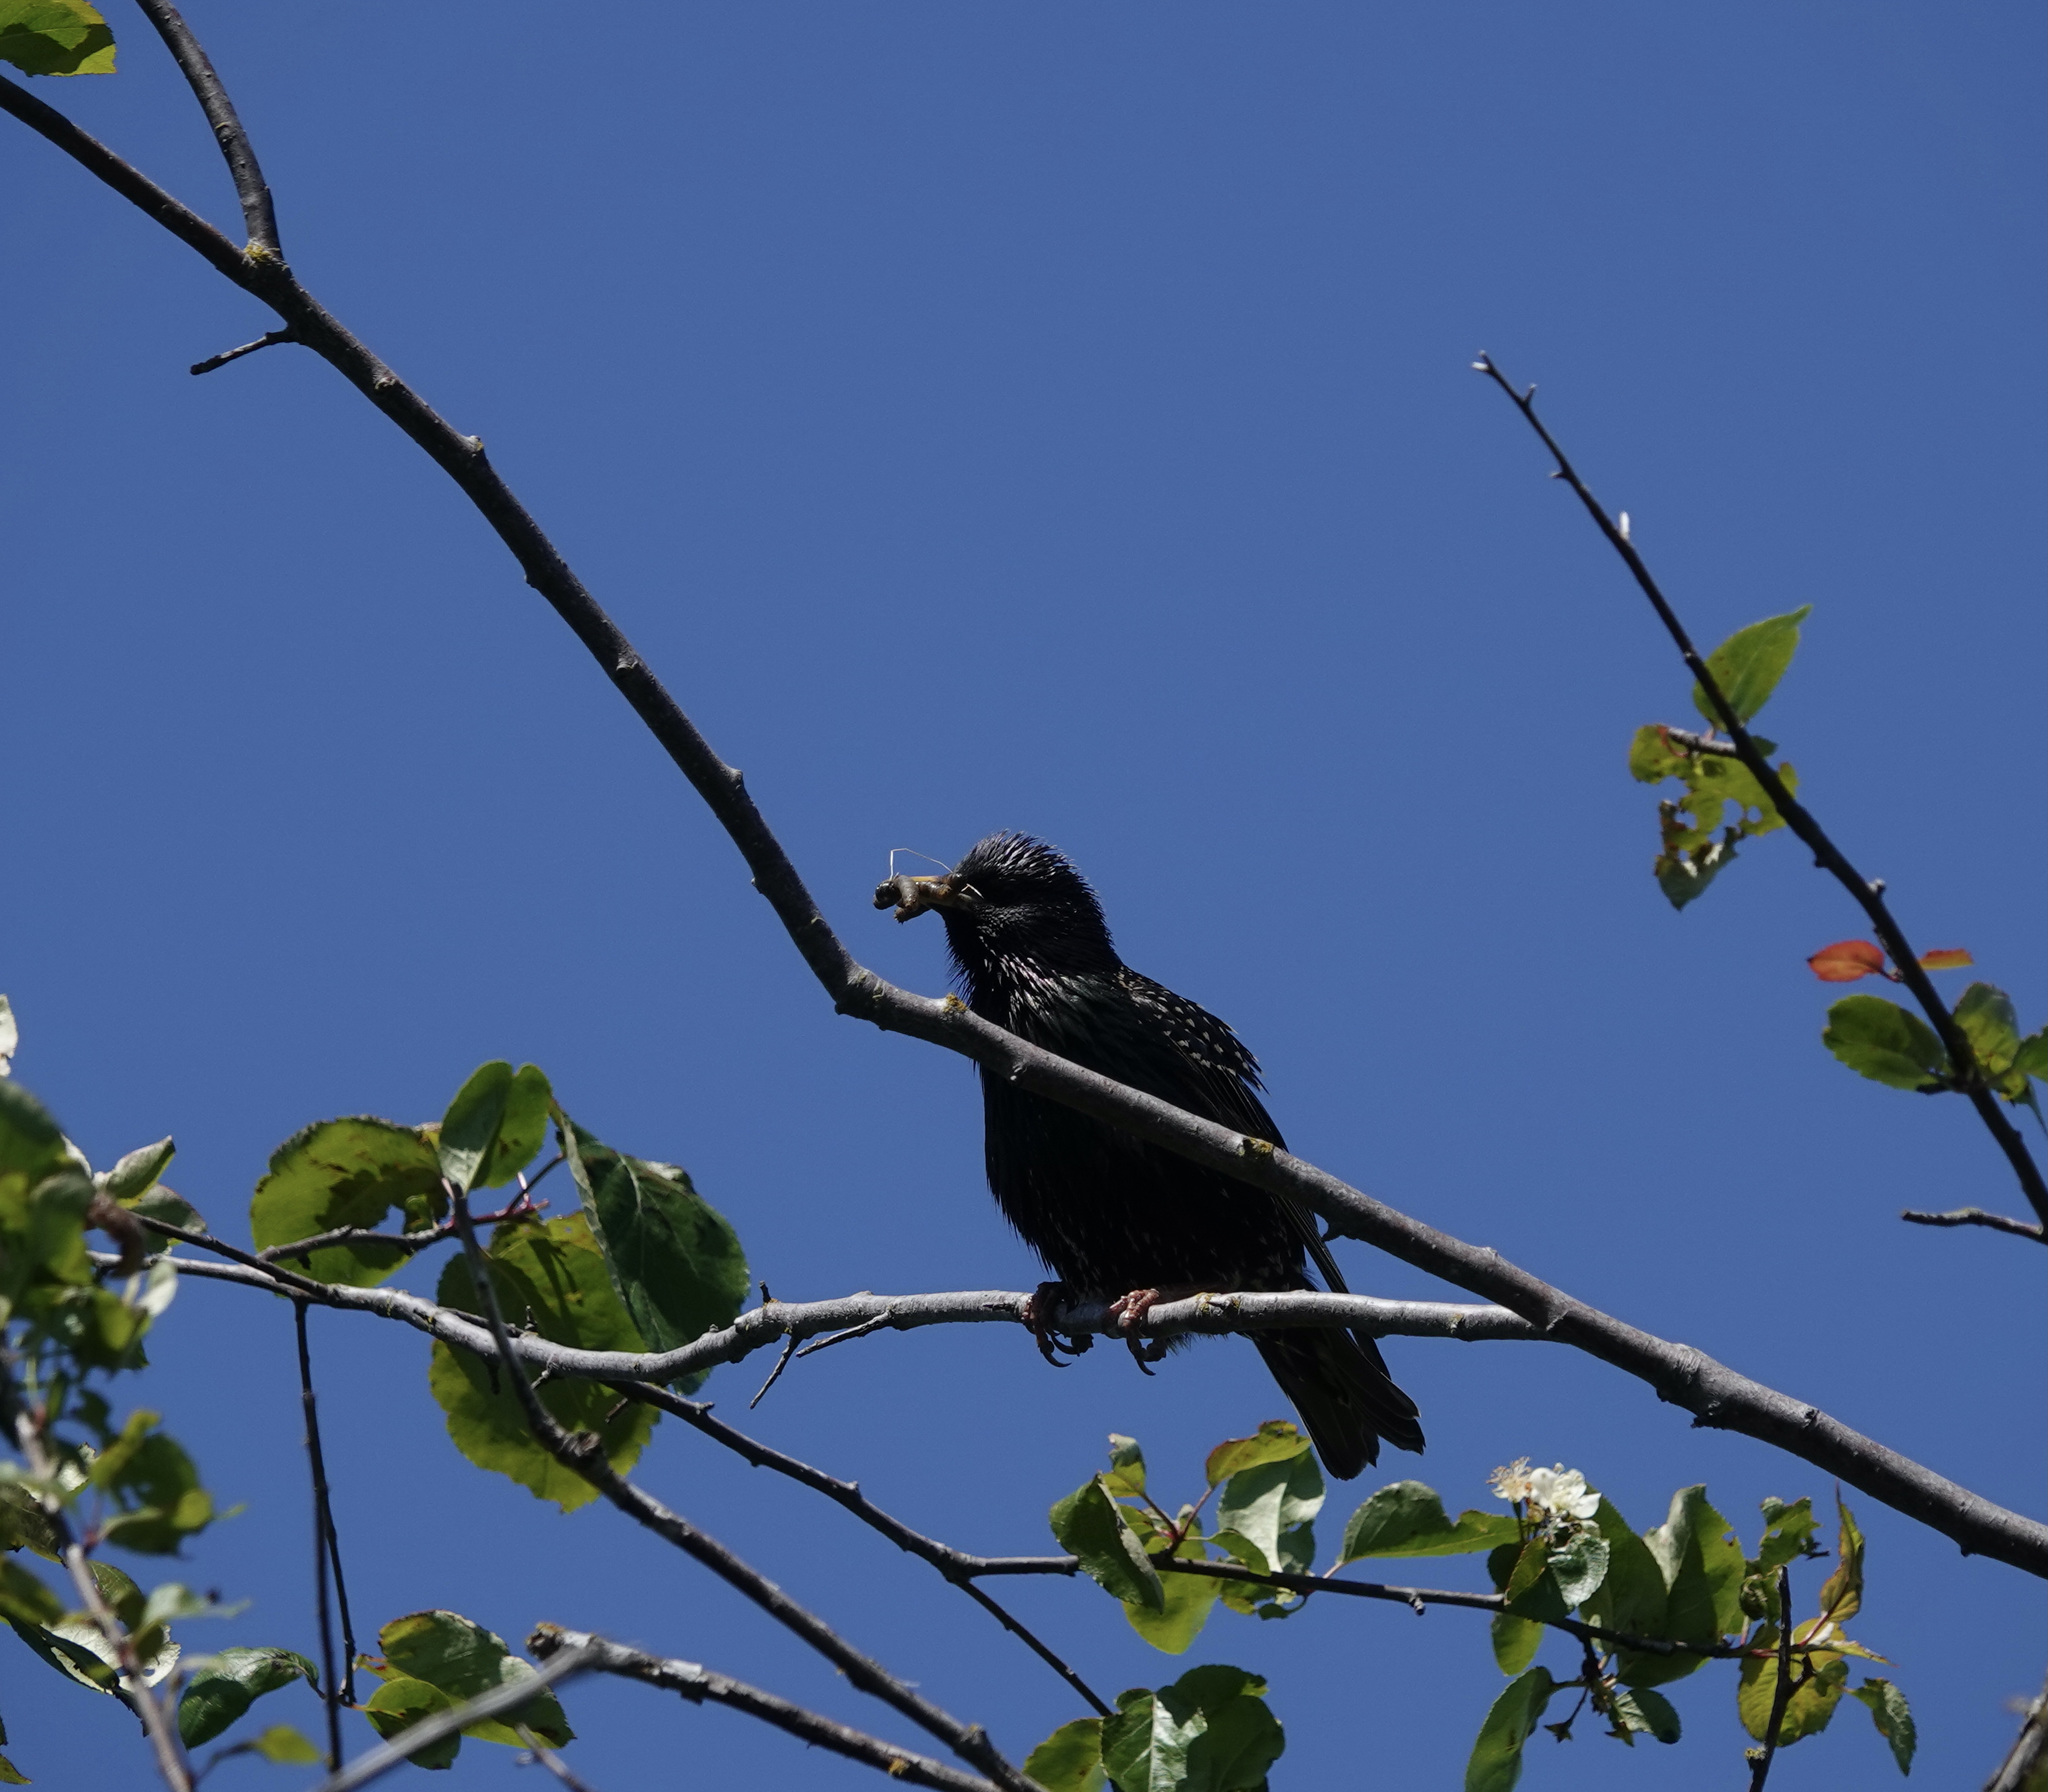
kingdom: Animalia
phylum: Chordata
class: Aves
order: Passeriformes
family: Sturnidae
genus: Sturnus
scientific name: Sturnus vulgaris
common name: Common starling
